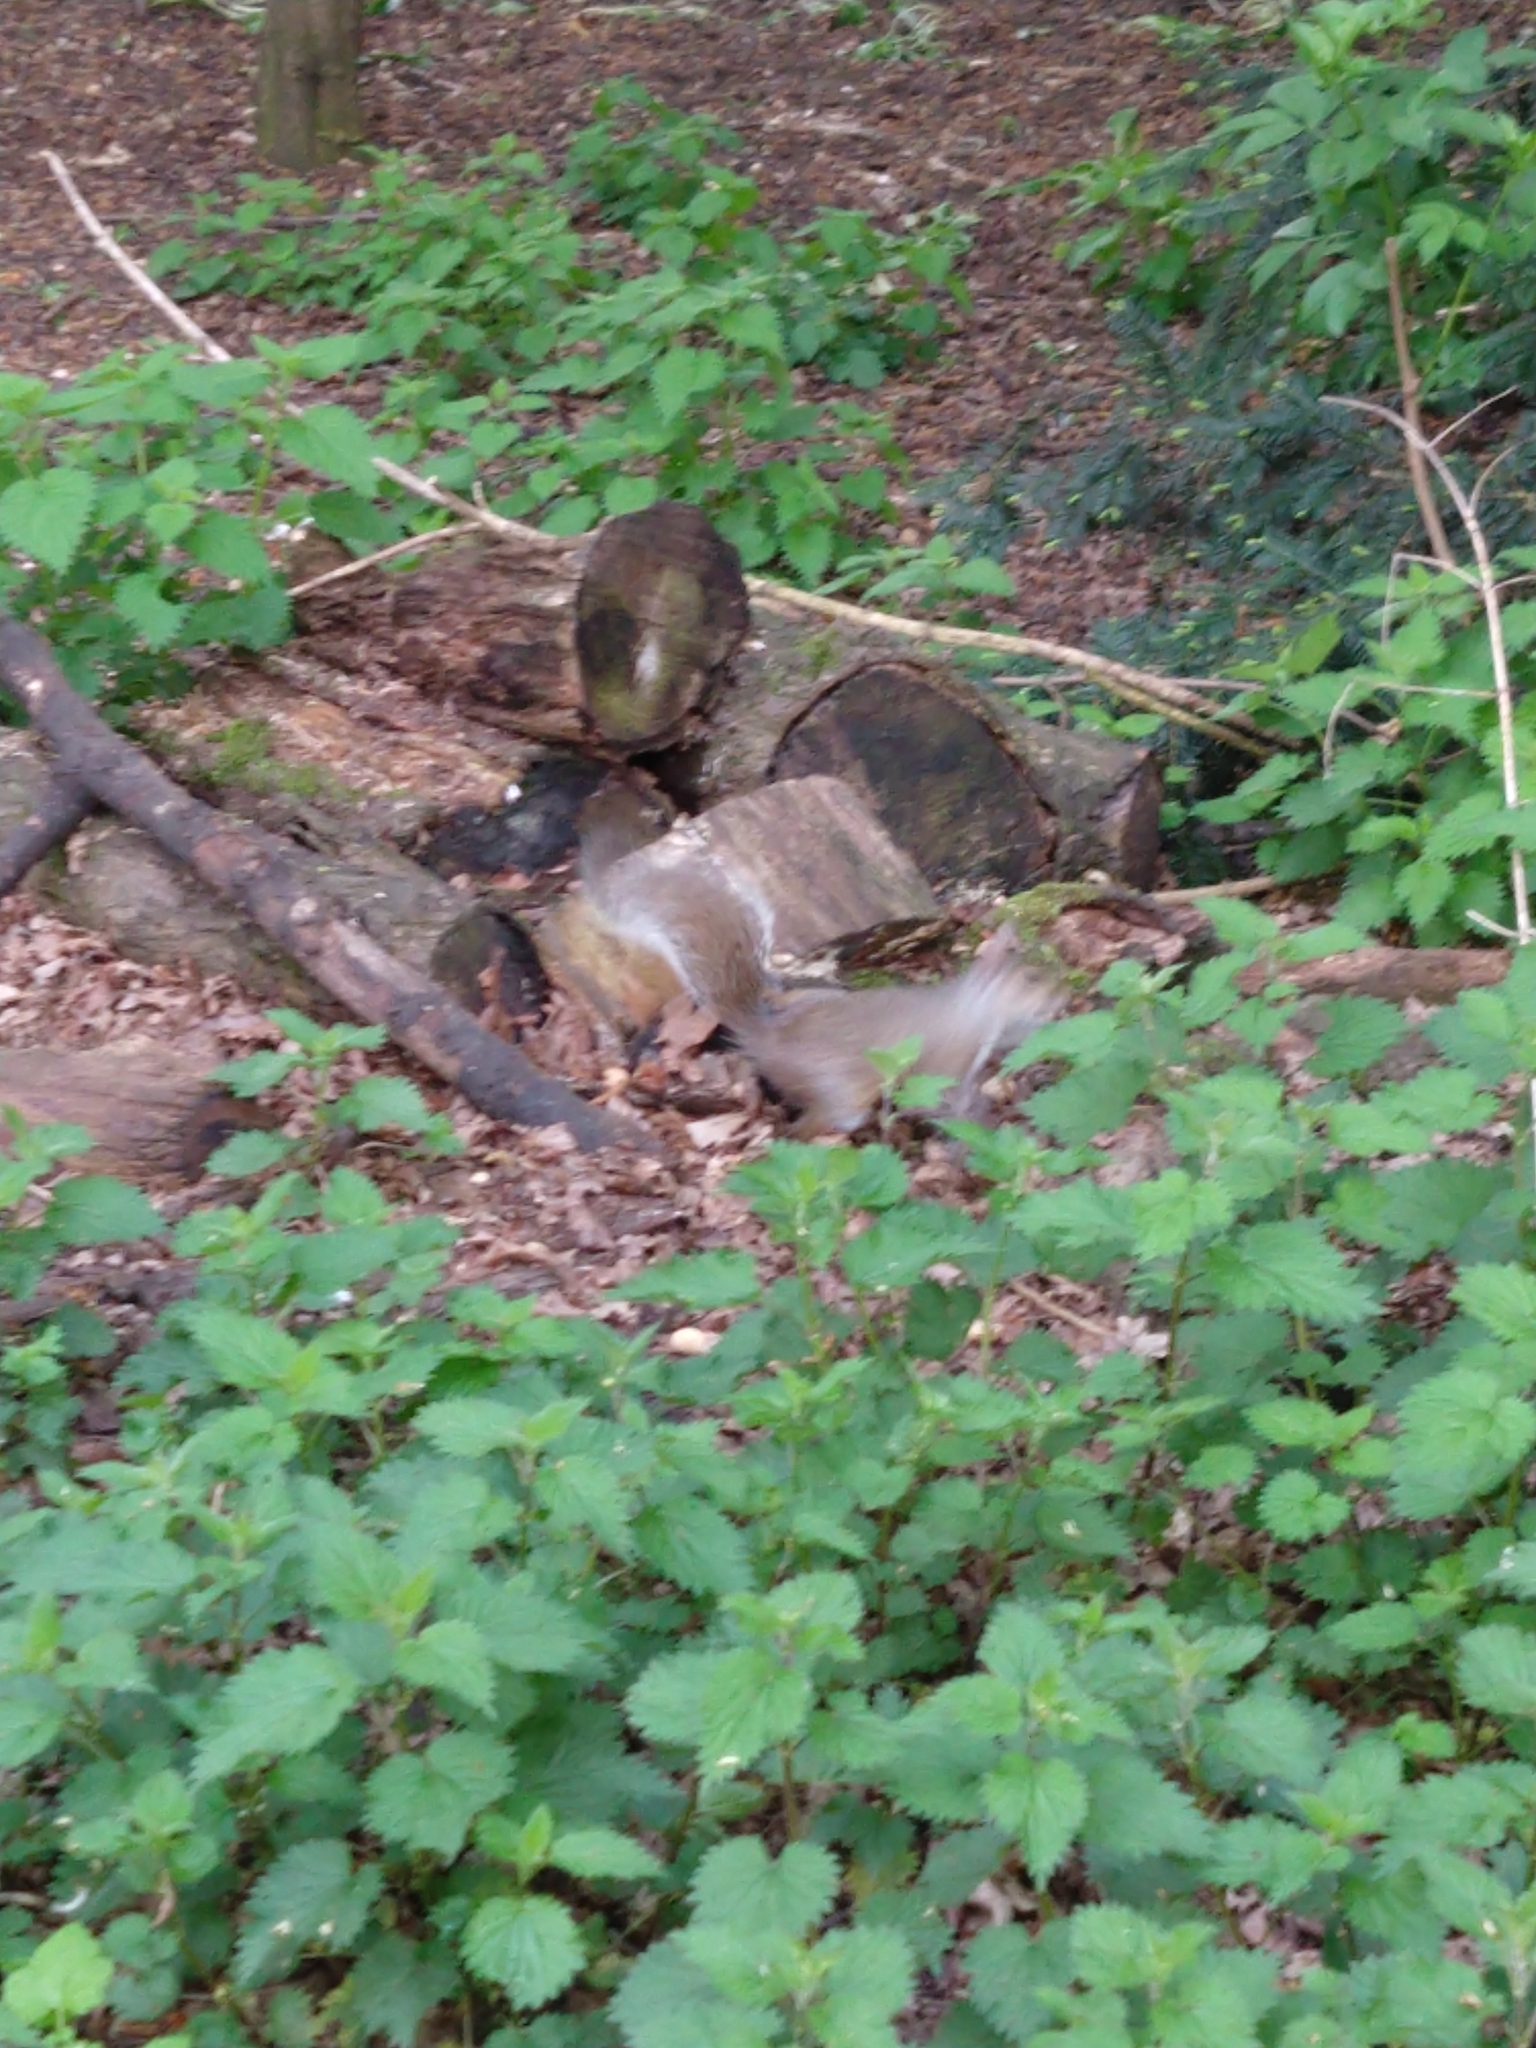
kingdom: Animalia
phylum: Chordata
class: Mammalia
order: Rodentia
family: Sciuridae
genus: Sciurus
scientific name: Sciurus carolinensis
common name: Eastern gray squirrel
